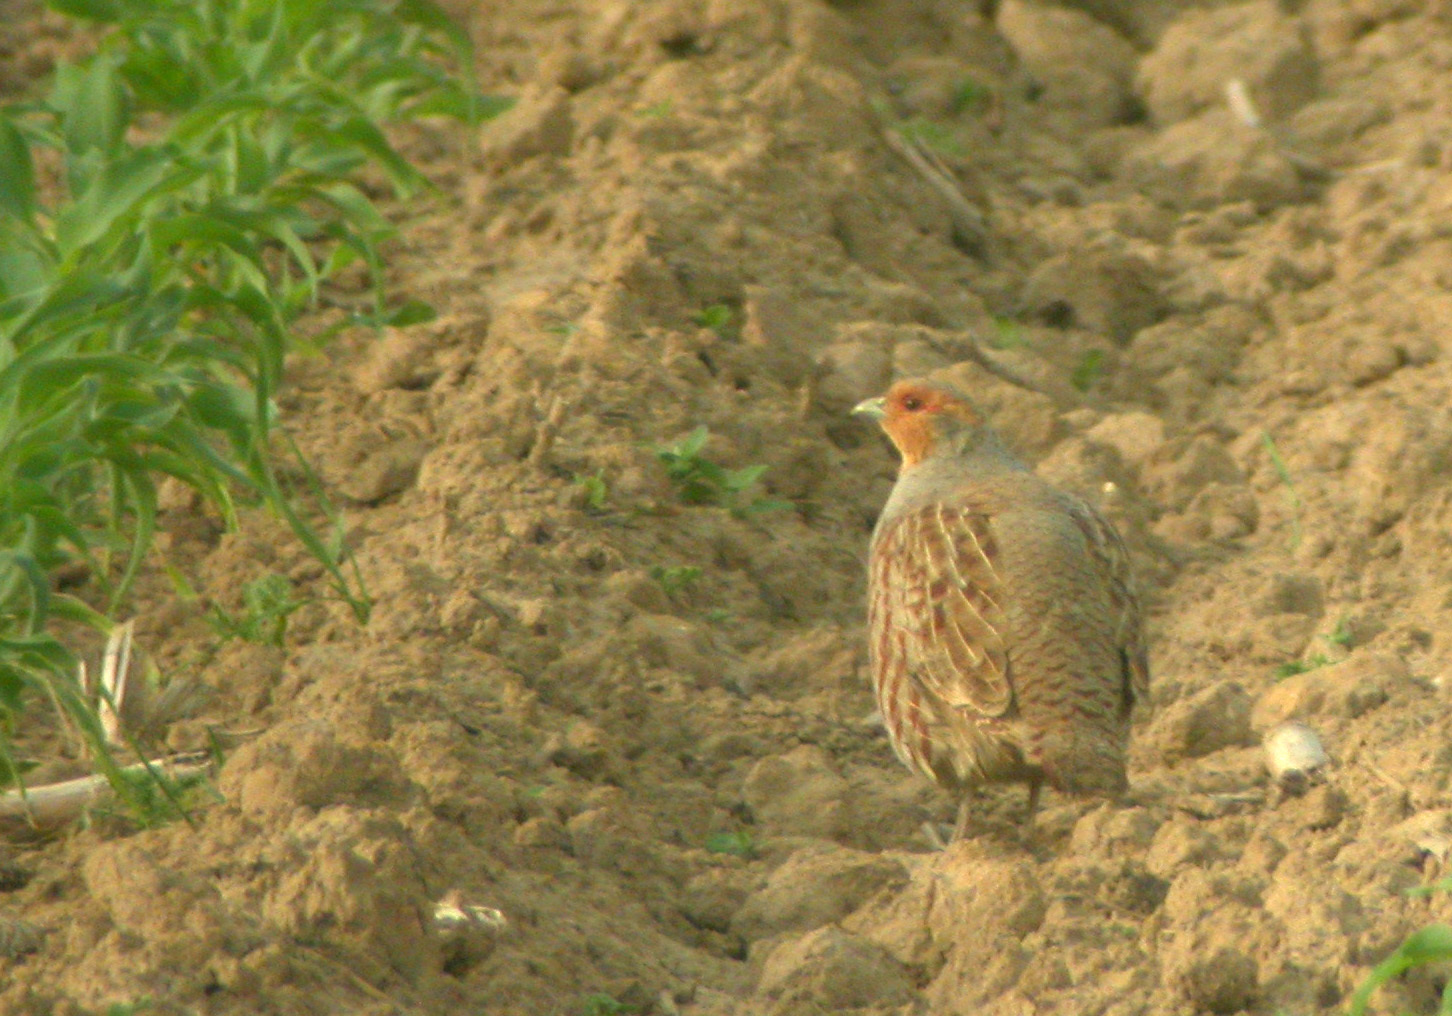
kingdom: Animalia
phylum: Chordata
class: Aves
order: Galliformes
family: Phasianidae
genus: Perdix
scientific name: Perdix perdix
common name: Grey partridge
